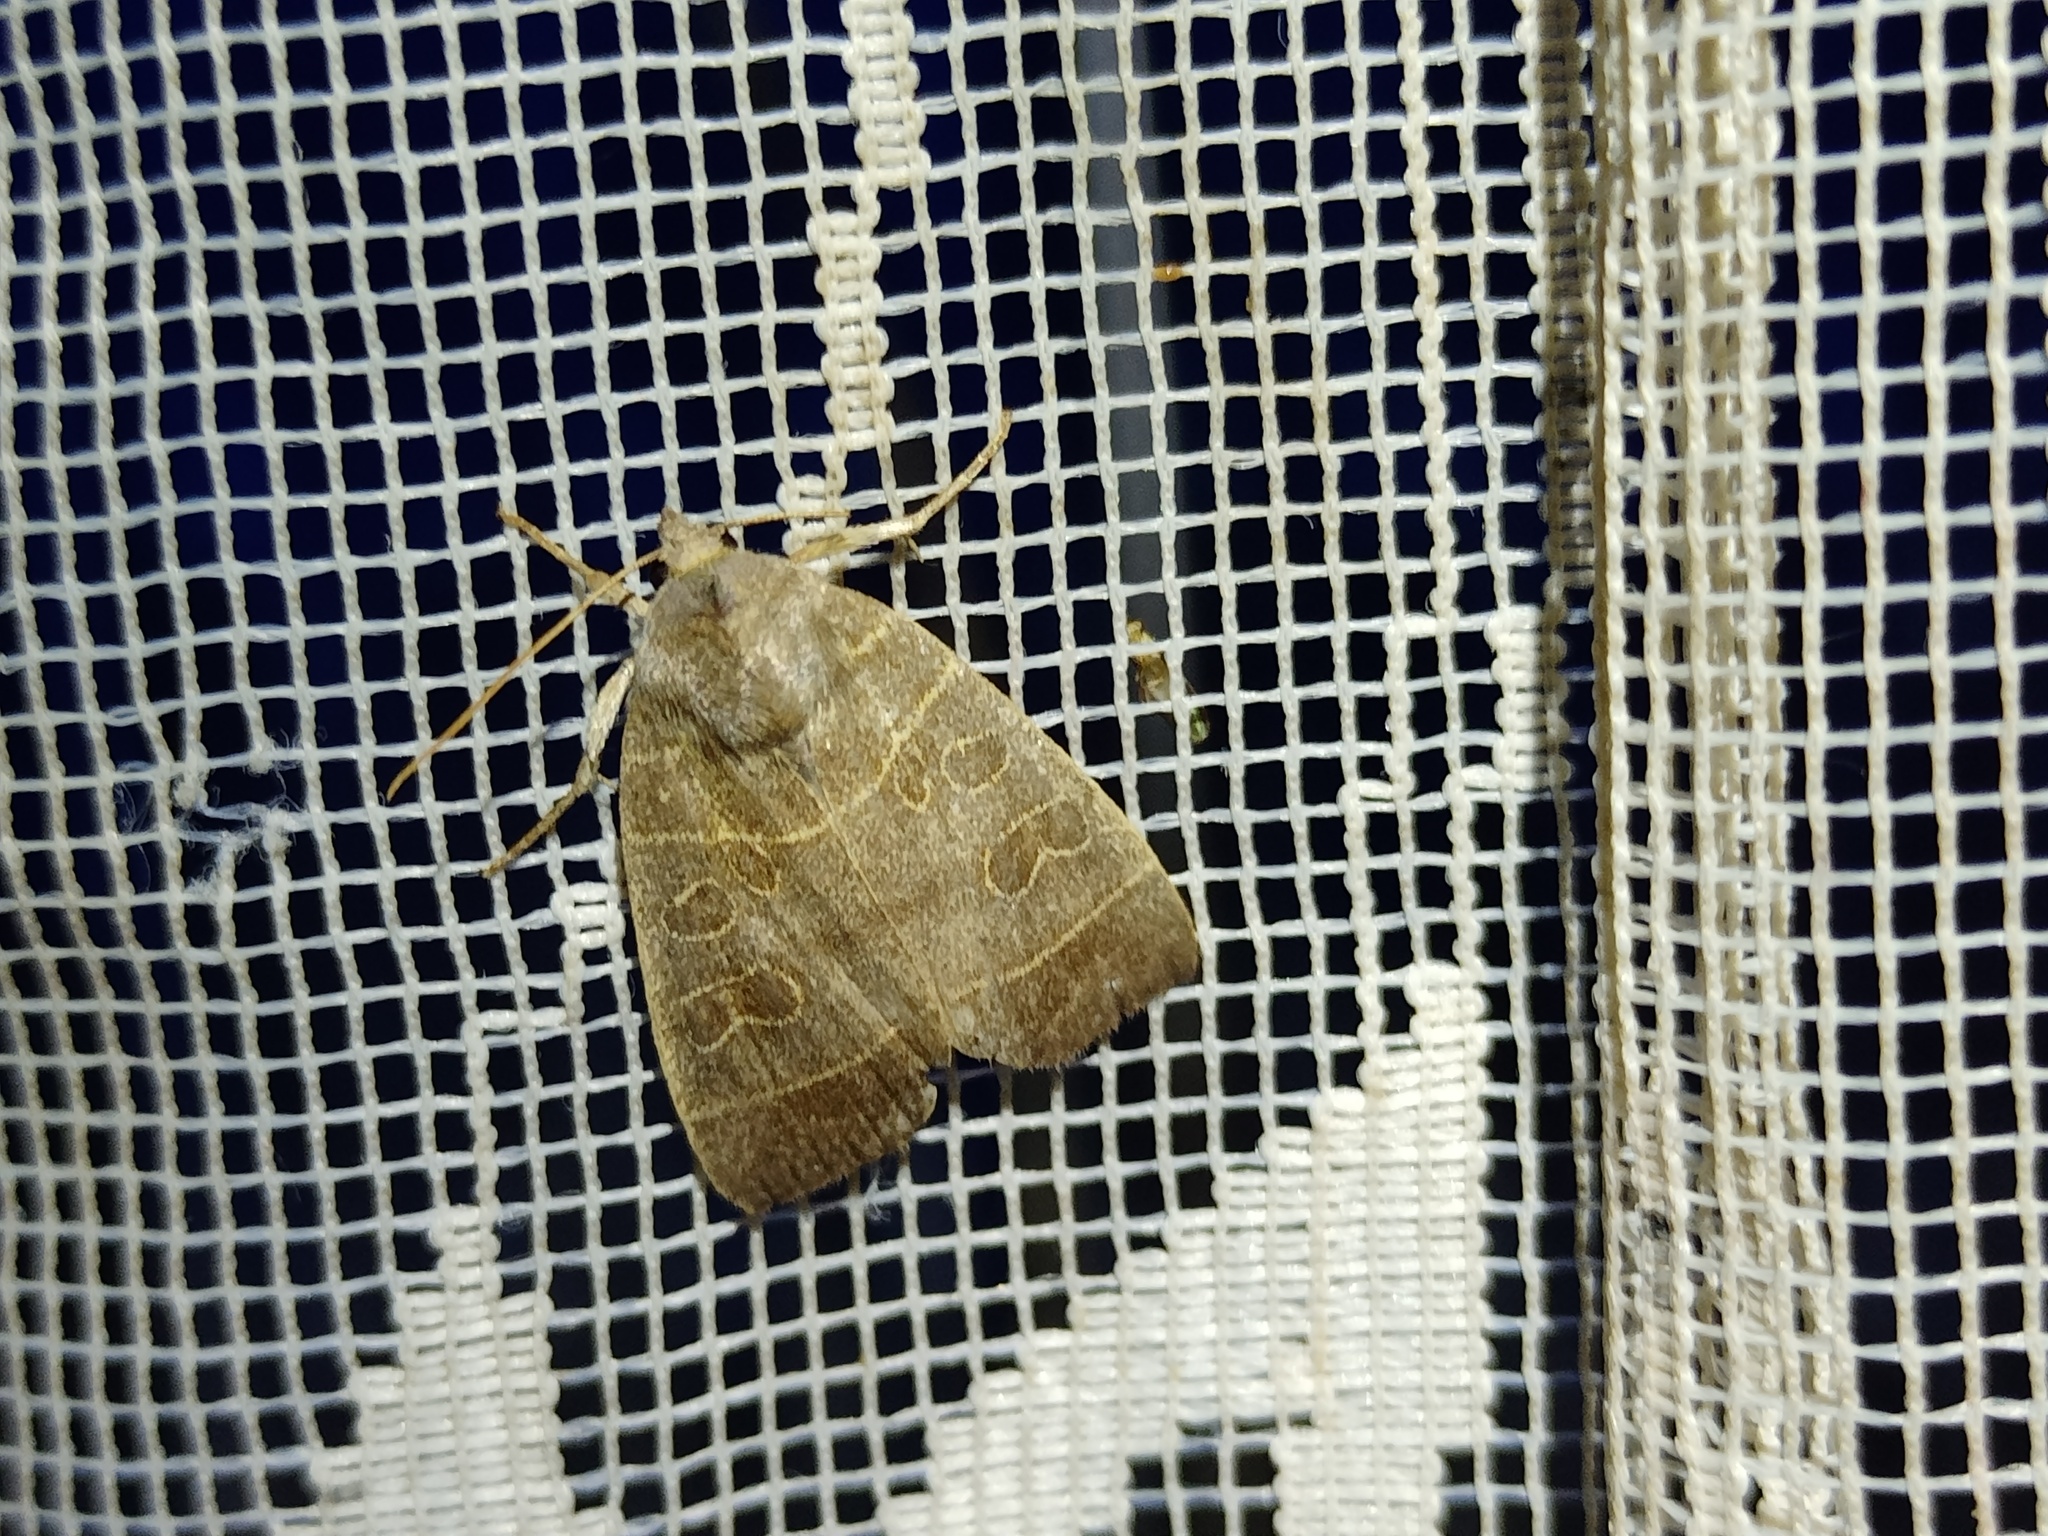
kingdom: Animalia
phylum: Arthropoda
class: Insecta
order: Lepidoptera
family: Noctuidae
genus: Ipimorpha
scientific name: Ipimorpha subtusa
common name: Olive
